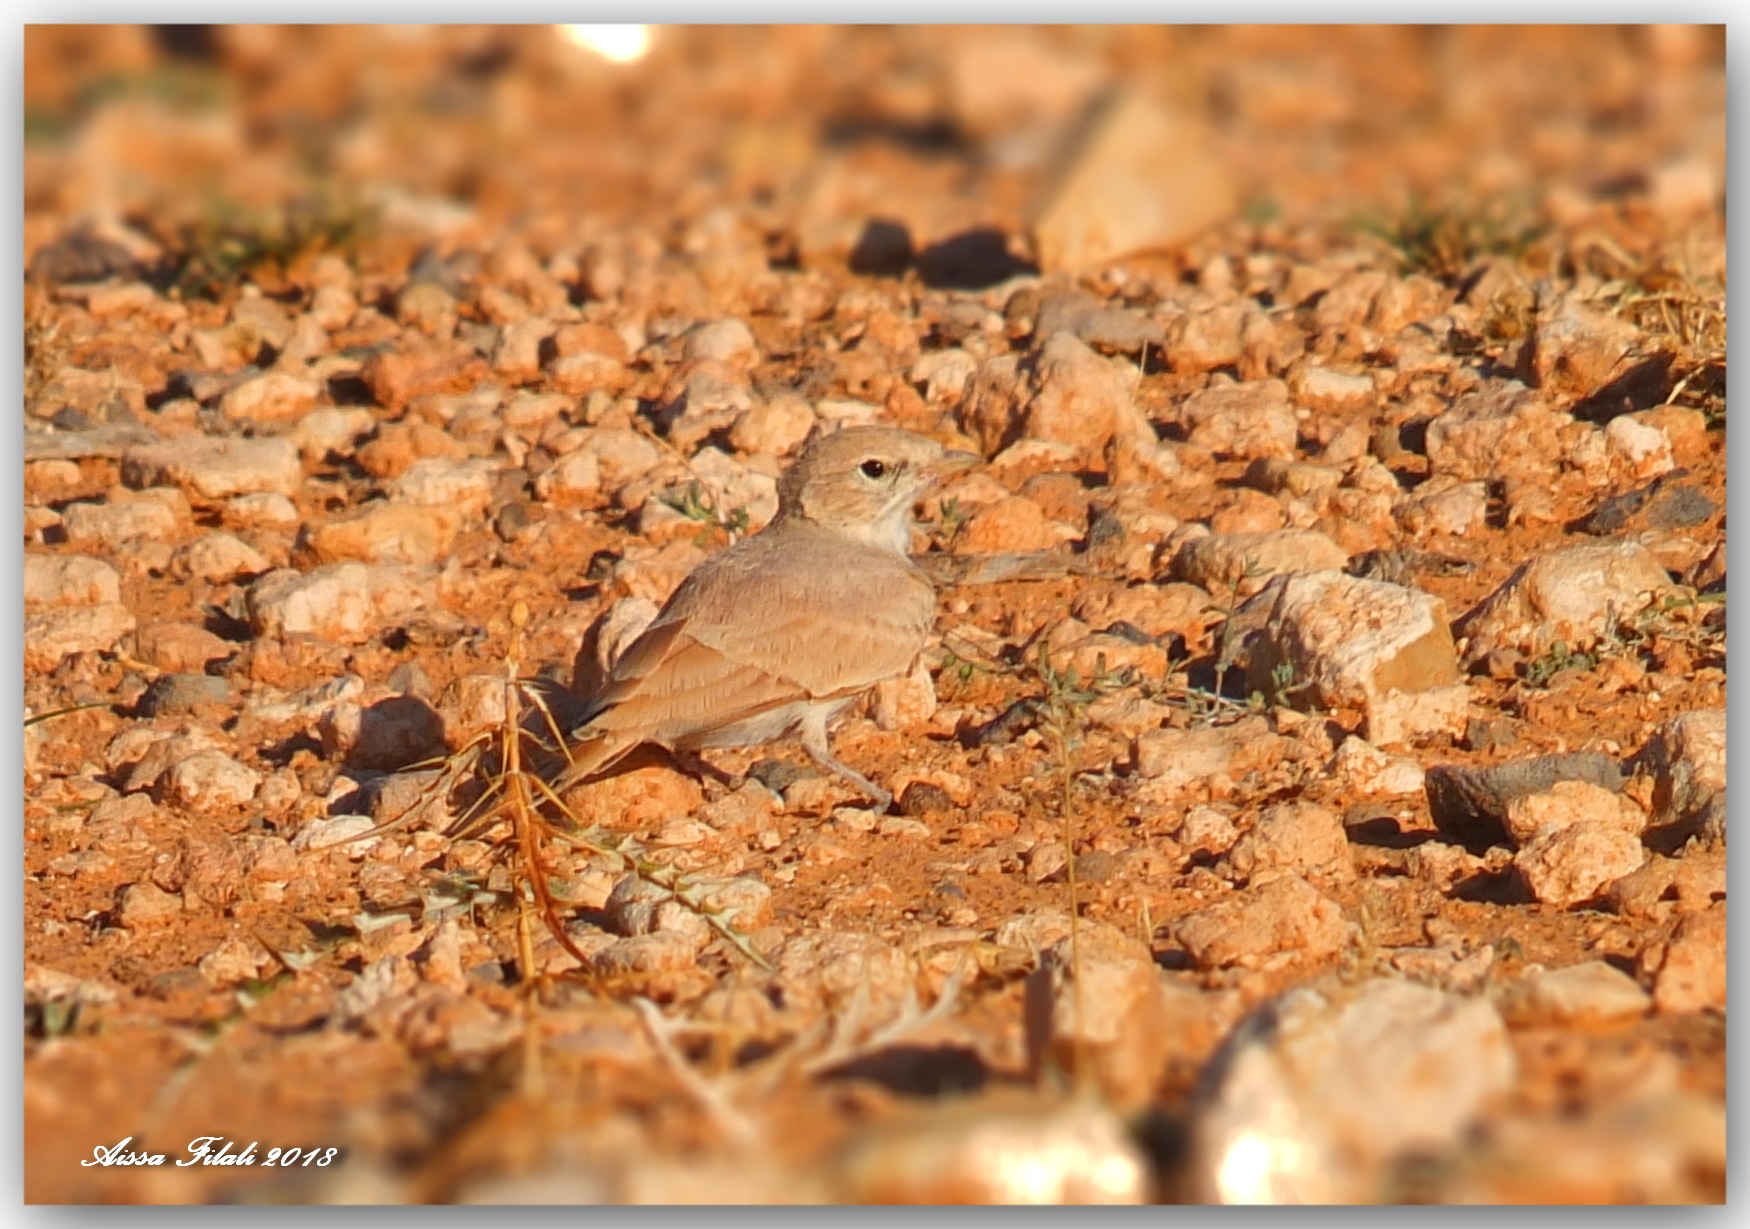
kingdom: Animalia
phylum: Chordata
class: Aves
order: Passeriformes
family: Alaudidae
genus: Ammomanes
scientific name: Ammomanes deserti
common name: Desert lark
